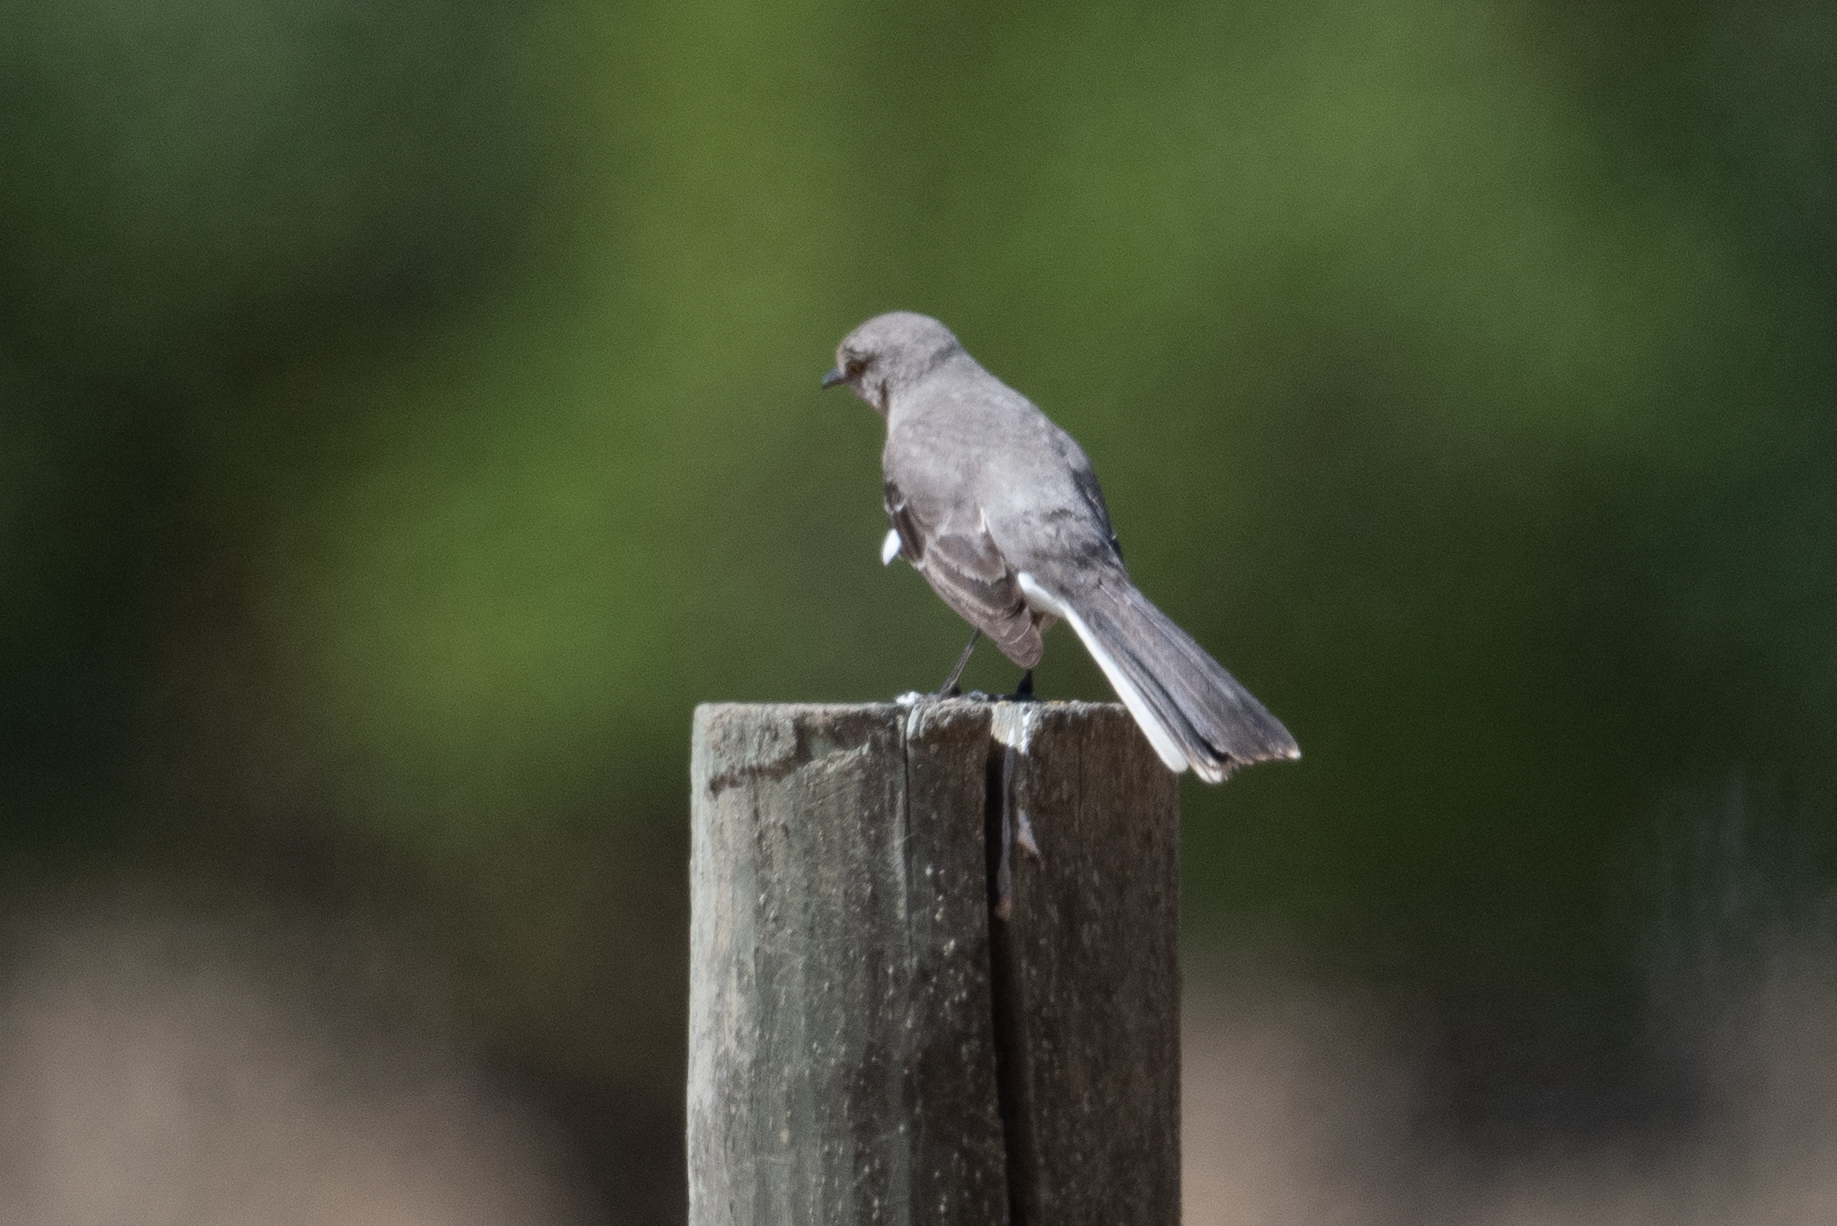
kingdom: Animalia
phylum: Chordata
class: Aves
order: Passeriformes
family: Mimidae
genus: Mimus
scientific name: Mimus polyglottos
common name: Northern mockingbird
